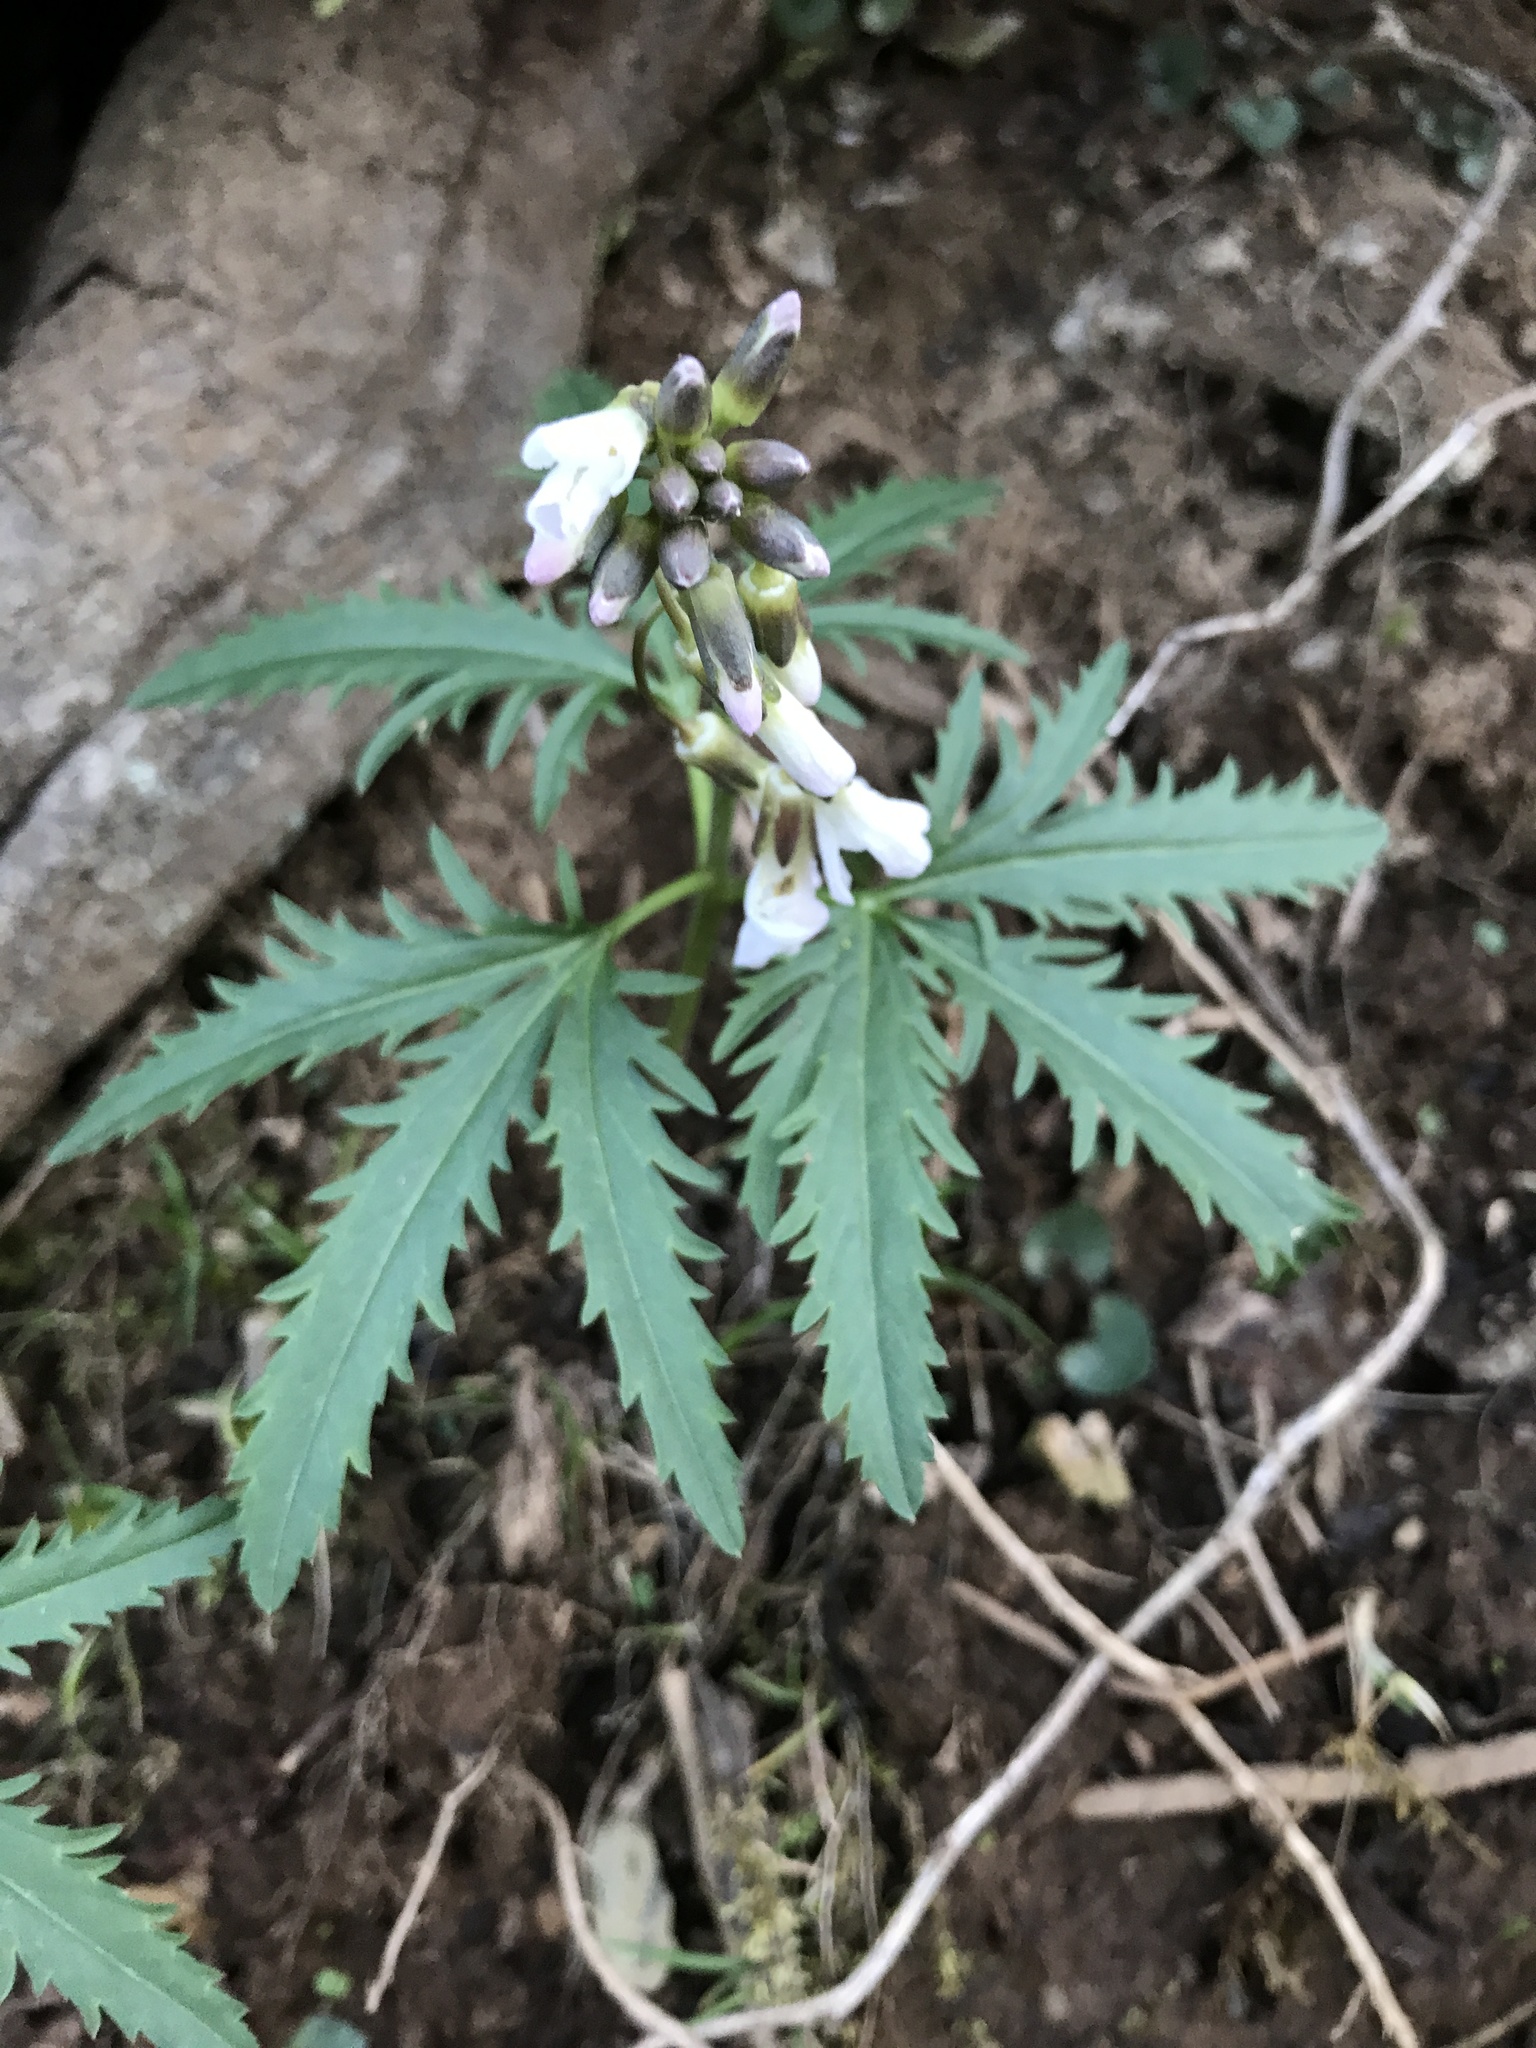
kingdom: Plantae
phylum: Tracheophyta
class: Magnoliopsida
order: Brassicales
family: Brassicaceae
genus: Cardamine
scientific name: Cardamine concatenata
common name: Cut-leaf toothcup
